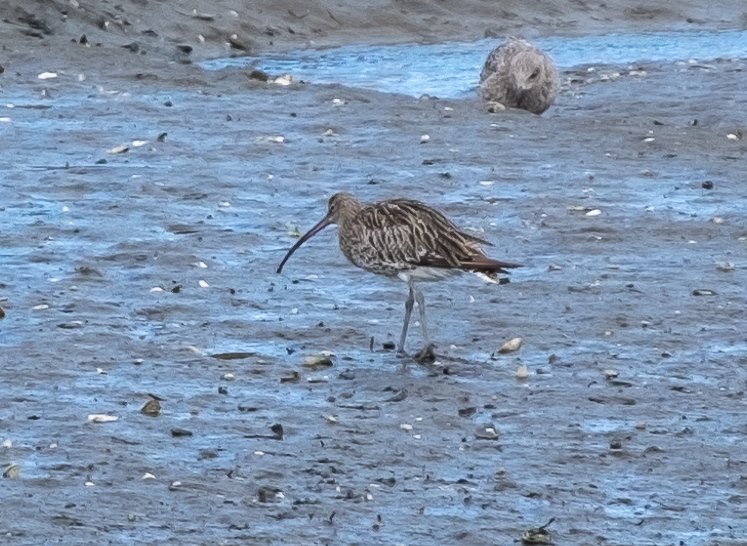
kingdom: Animalia
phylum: Chordata
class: Aves
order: Charadriiformes
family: Scolopacidae
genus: Numenius
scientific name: Numenius arquata
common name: Eurasian curlew
